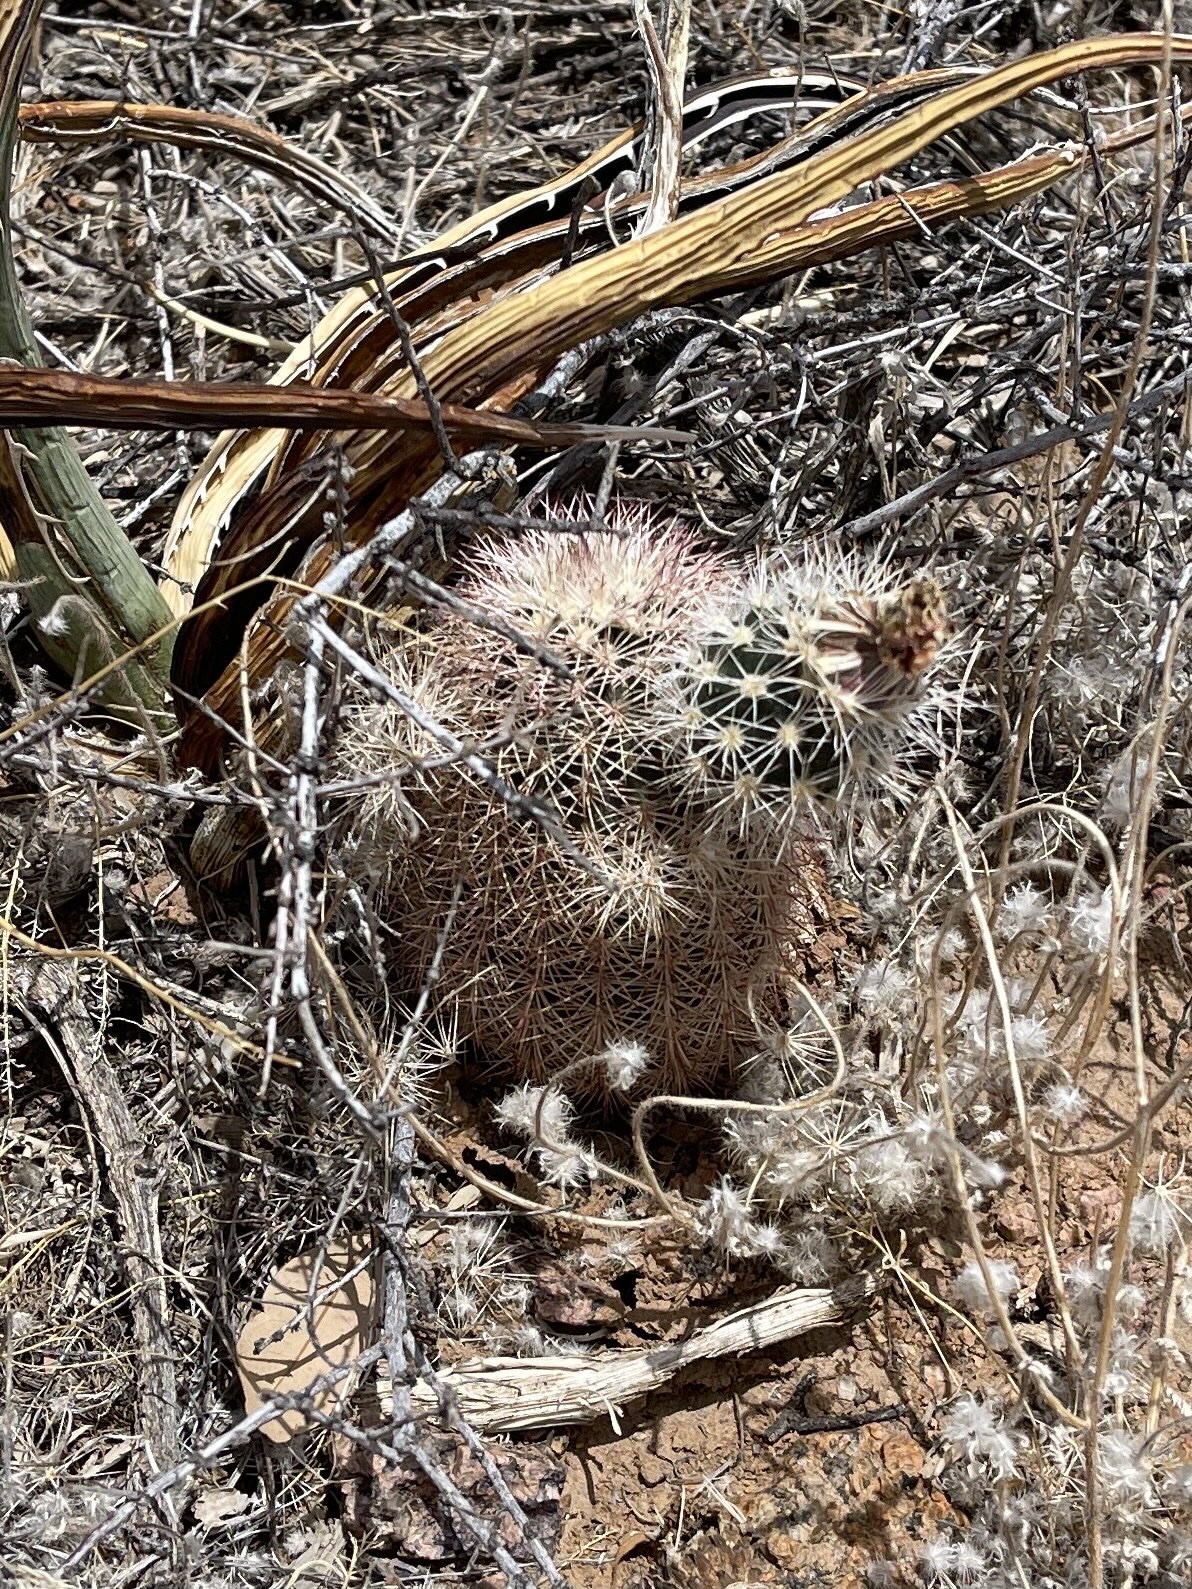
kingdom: Plantae
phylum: Tracheophyta
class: Magnoliopsida
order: Caryophyllales
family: Cactaceae
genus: Echinocereus
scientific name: Echinocereus dasyacanthus
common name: Spiny hedgehog cactus
